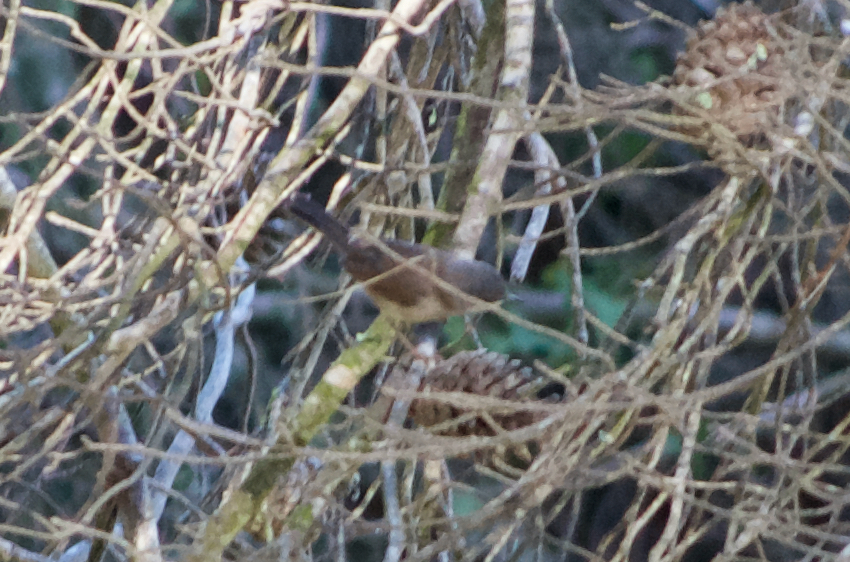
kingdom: Animalia
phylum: Chordata
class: Aves
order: Passeriformes
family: Sylviidae
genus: Curruca
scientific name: Curruca melanocephala
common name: Sardinian warbler
